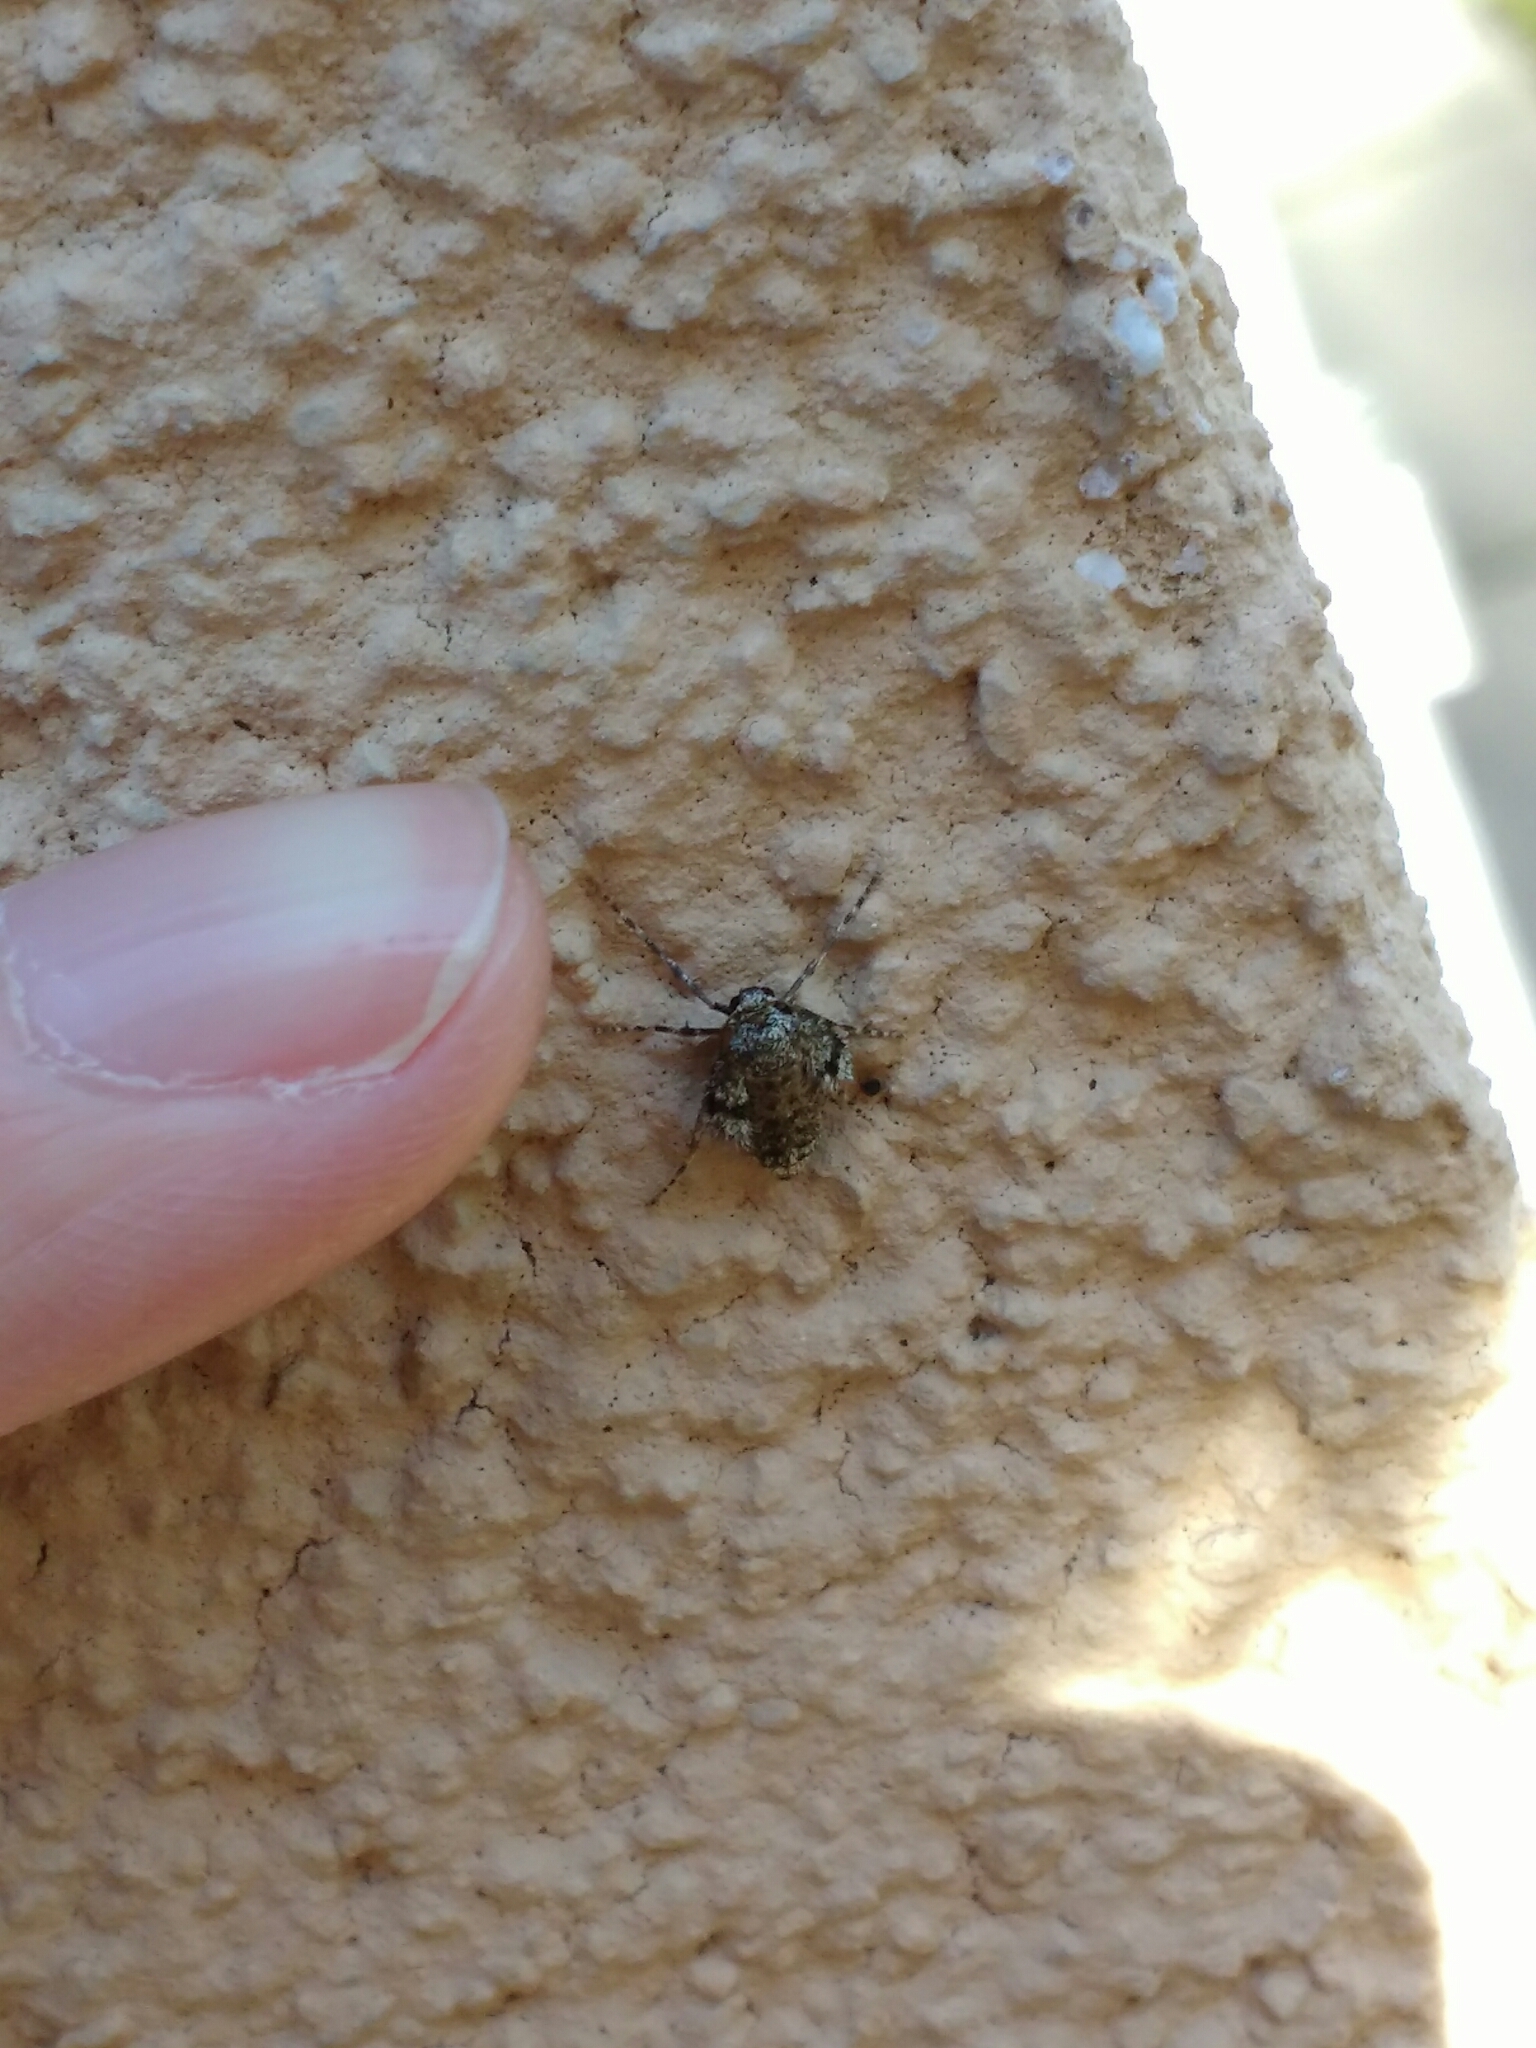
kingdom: Animalia
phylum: Arthropoda
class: Insecta
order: Lepidoptera
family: Geometridae
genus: Operophtera
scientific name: Operophtera fagata
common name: Northern winter moth
